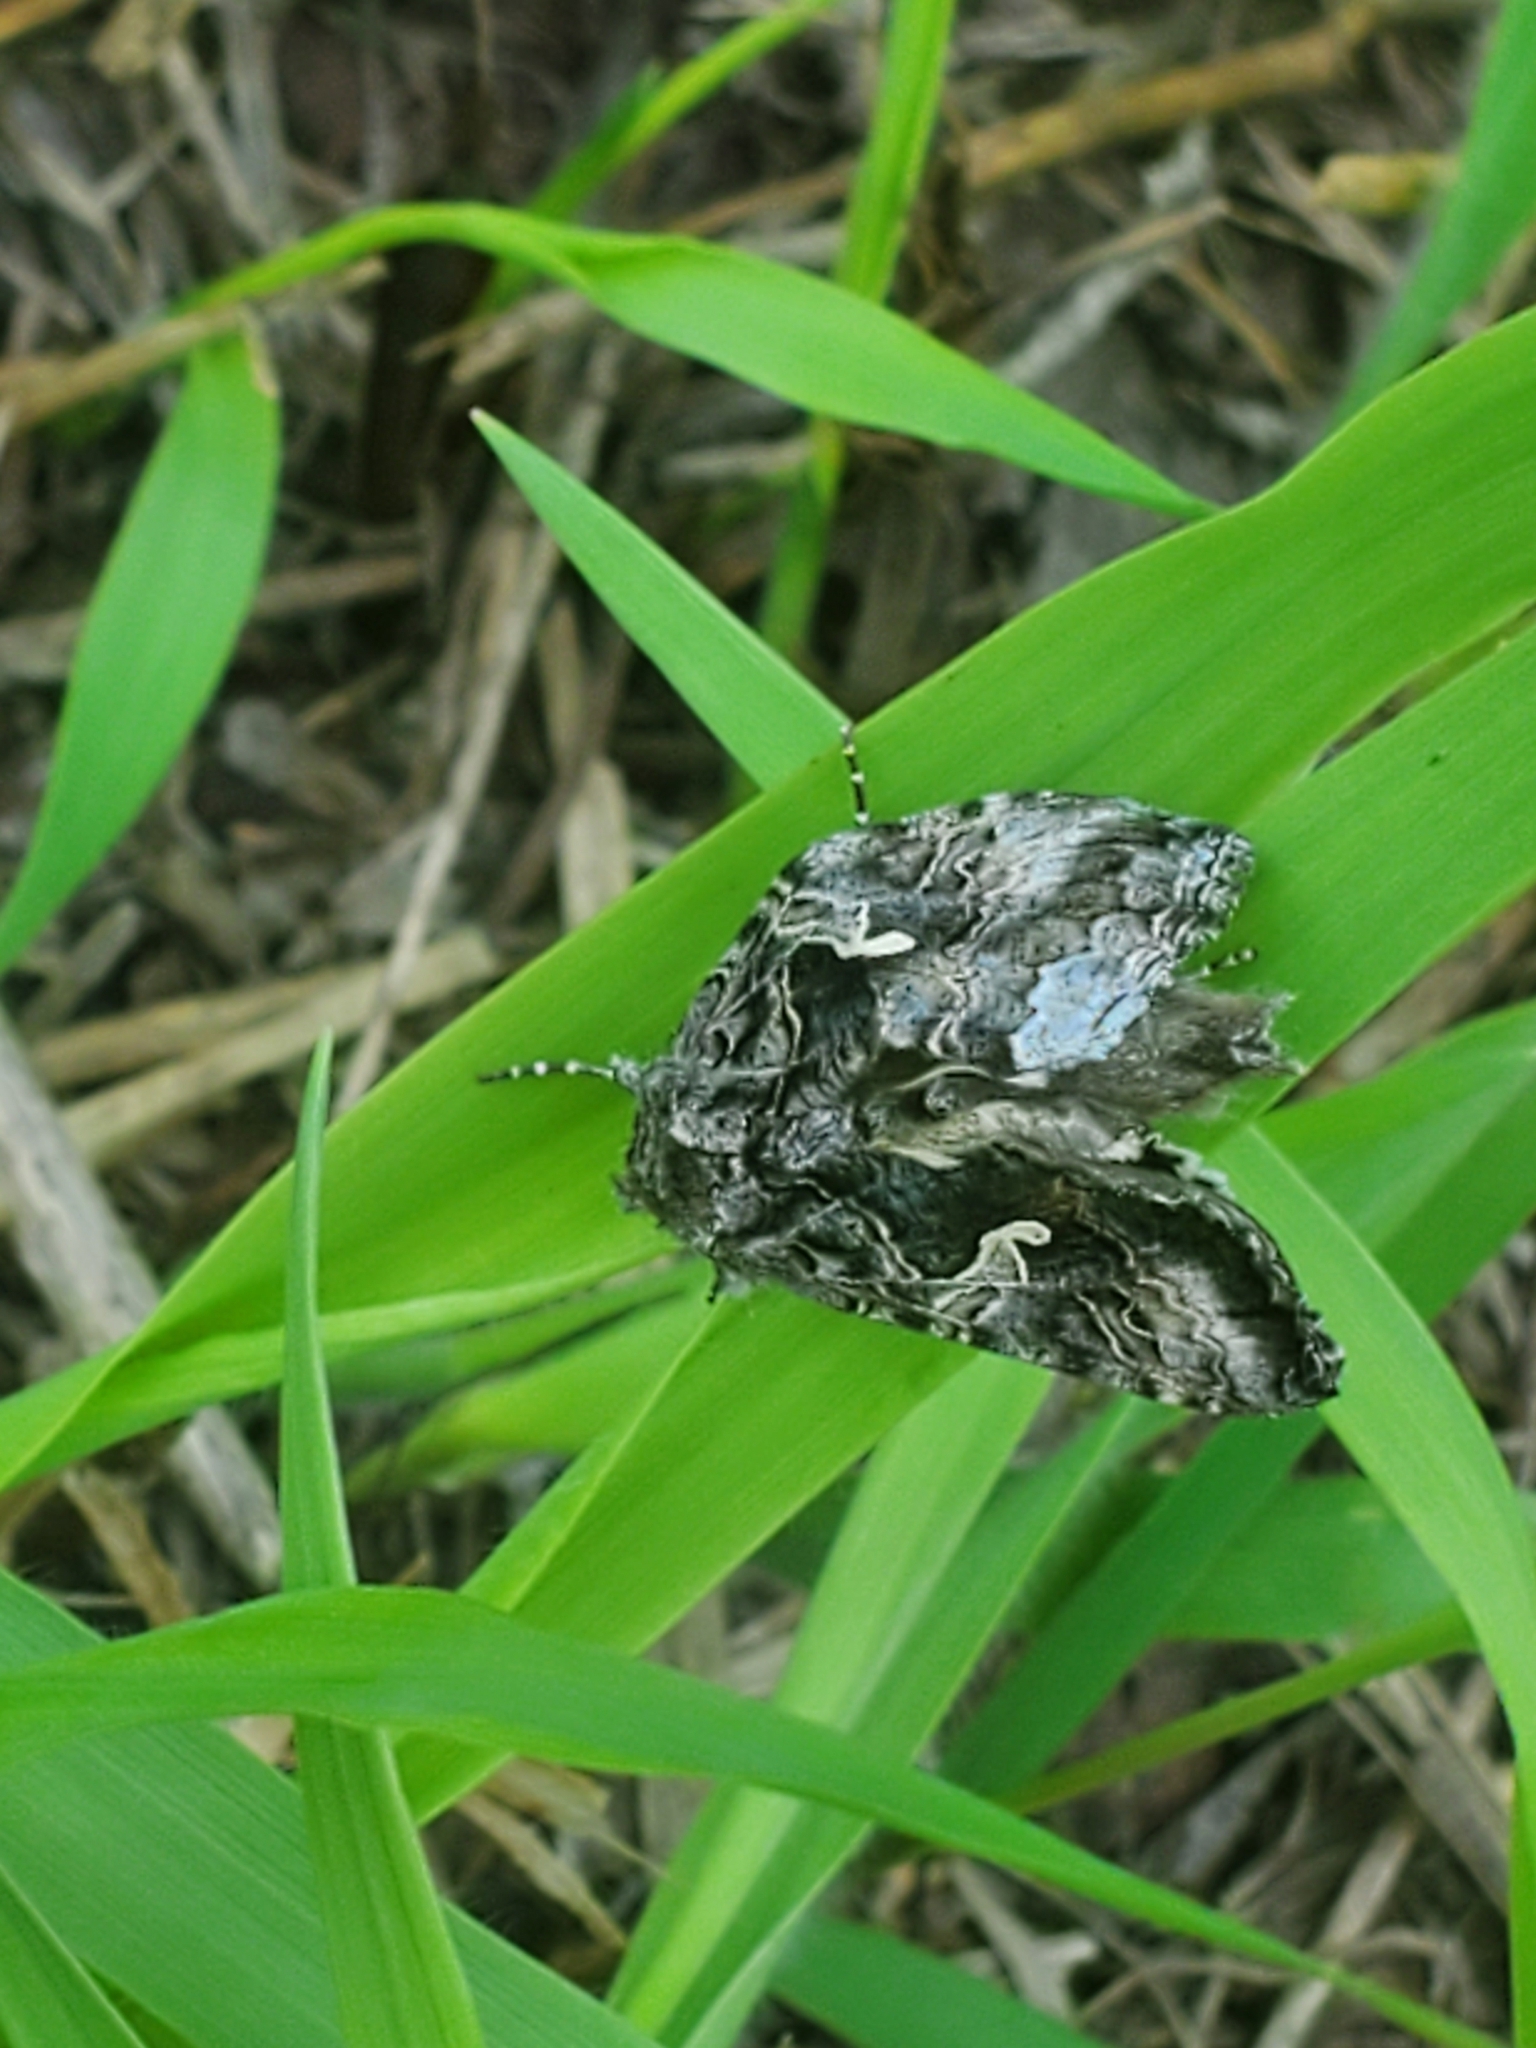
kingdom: Animalia
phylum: Arthropoda
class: Insecta
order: Lepidoptera
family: Noctuidae
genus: Autographa
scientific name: Autographa californica
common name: Alfalfa looper
